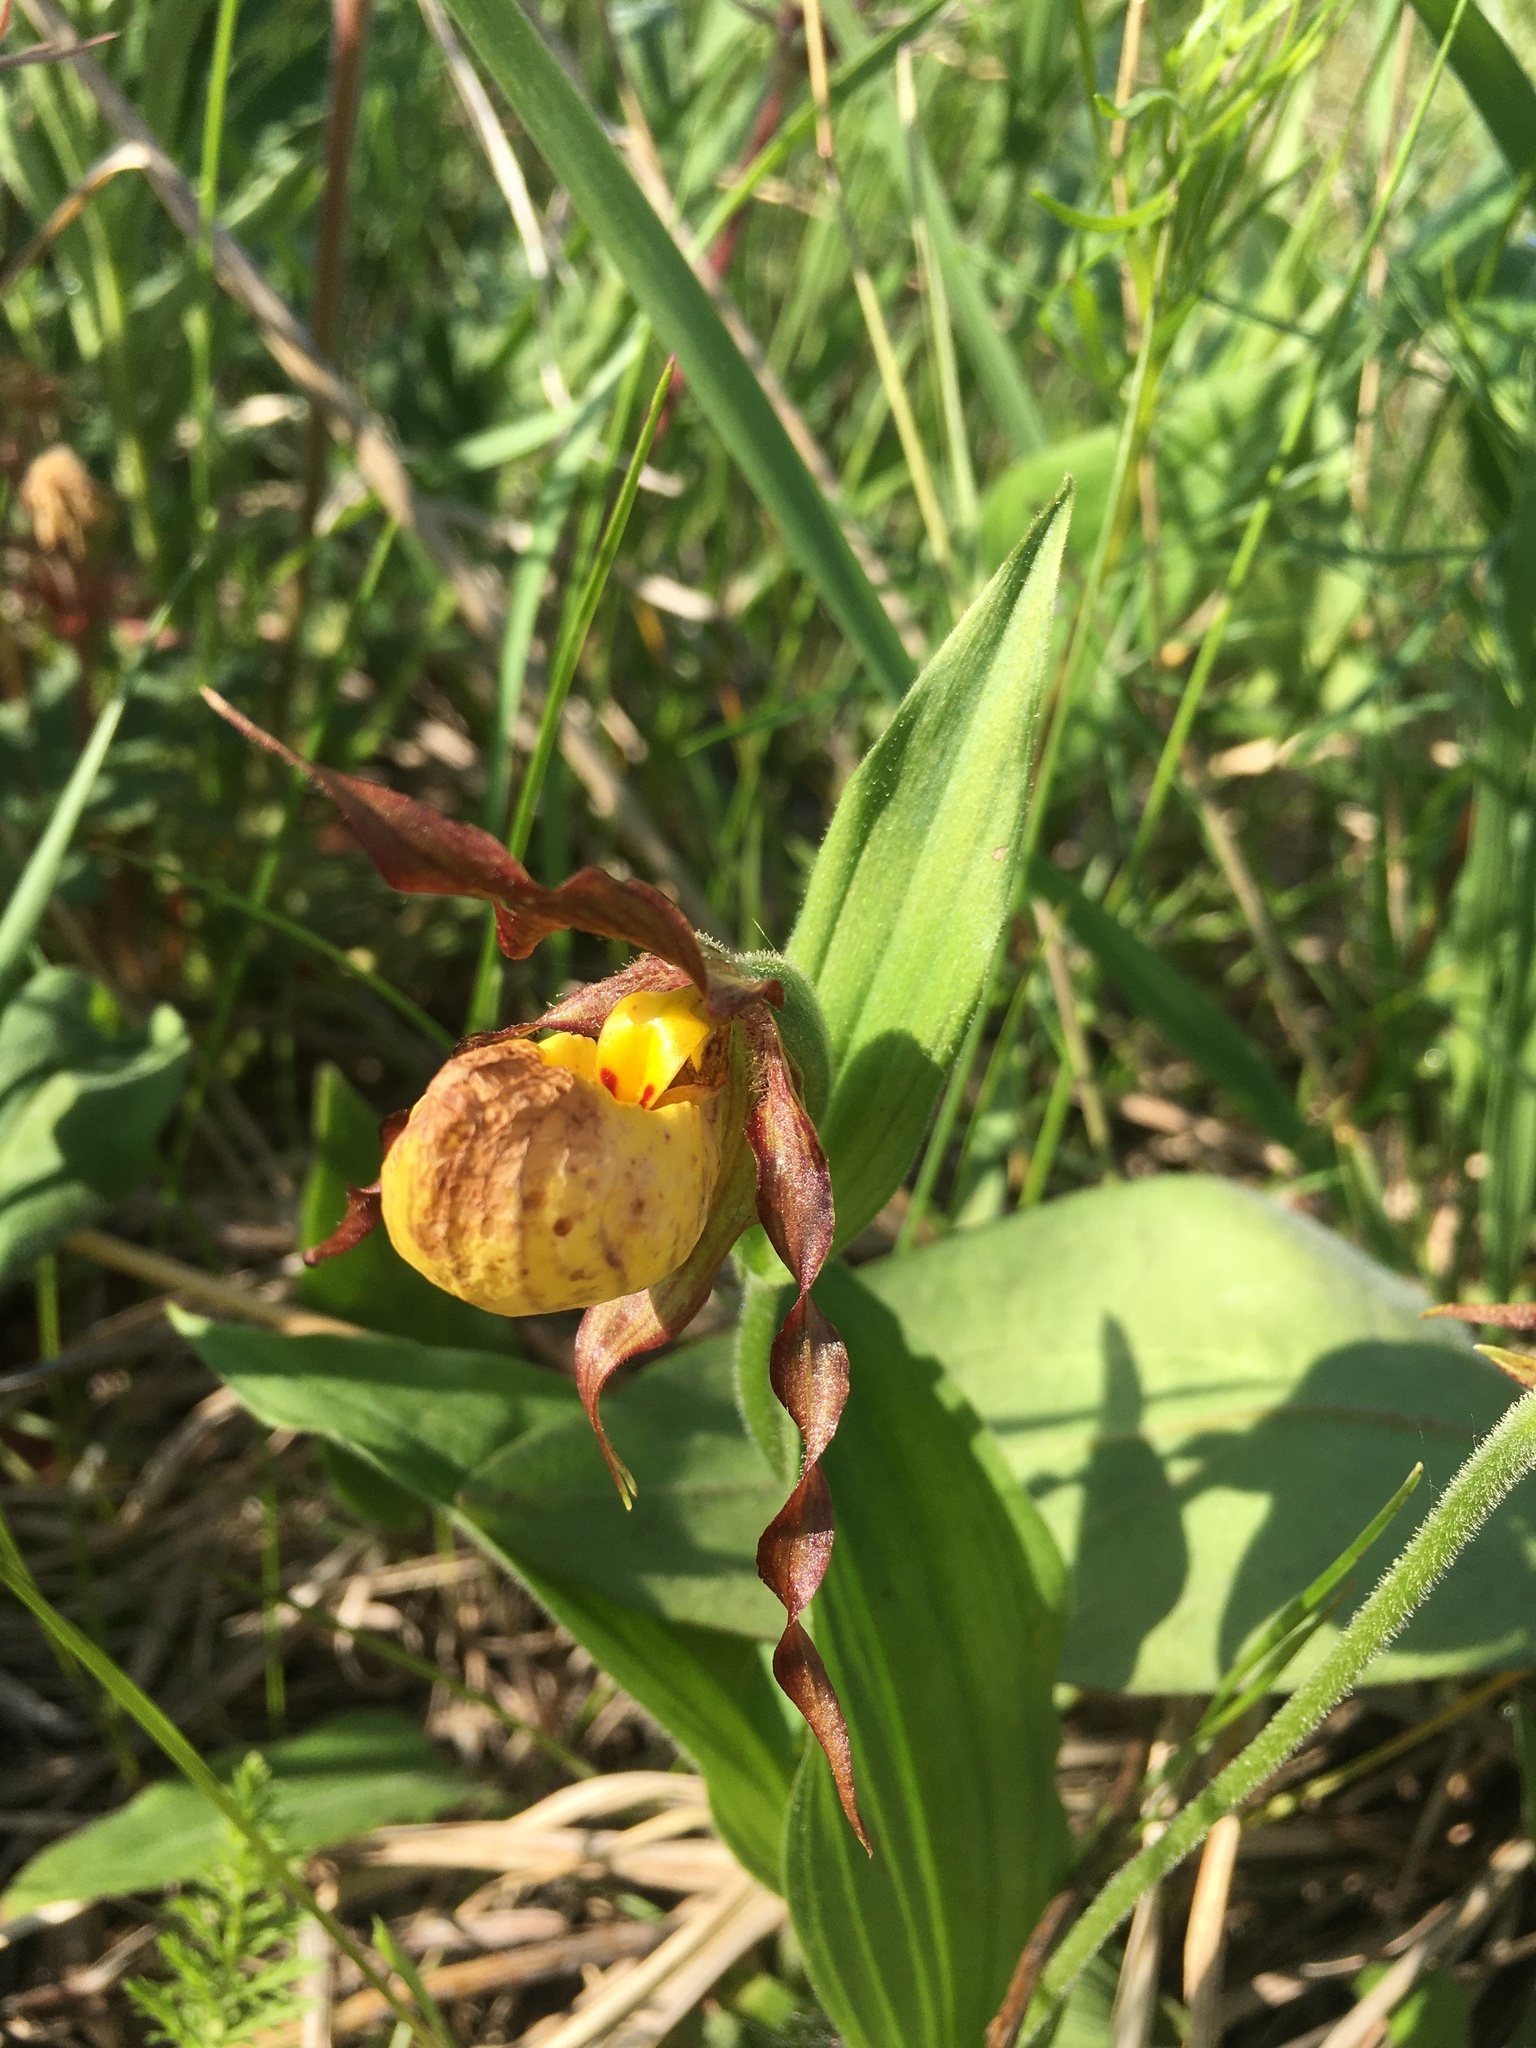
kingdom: Plantae
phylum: Tracheophyta
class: Liliopsida
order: Asparagales
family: Orchidaceae
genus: Cypripedium
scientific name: Cypripedium parviflorum
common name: American yellow lady's-slipper
